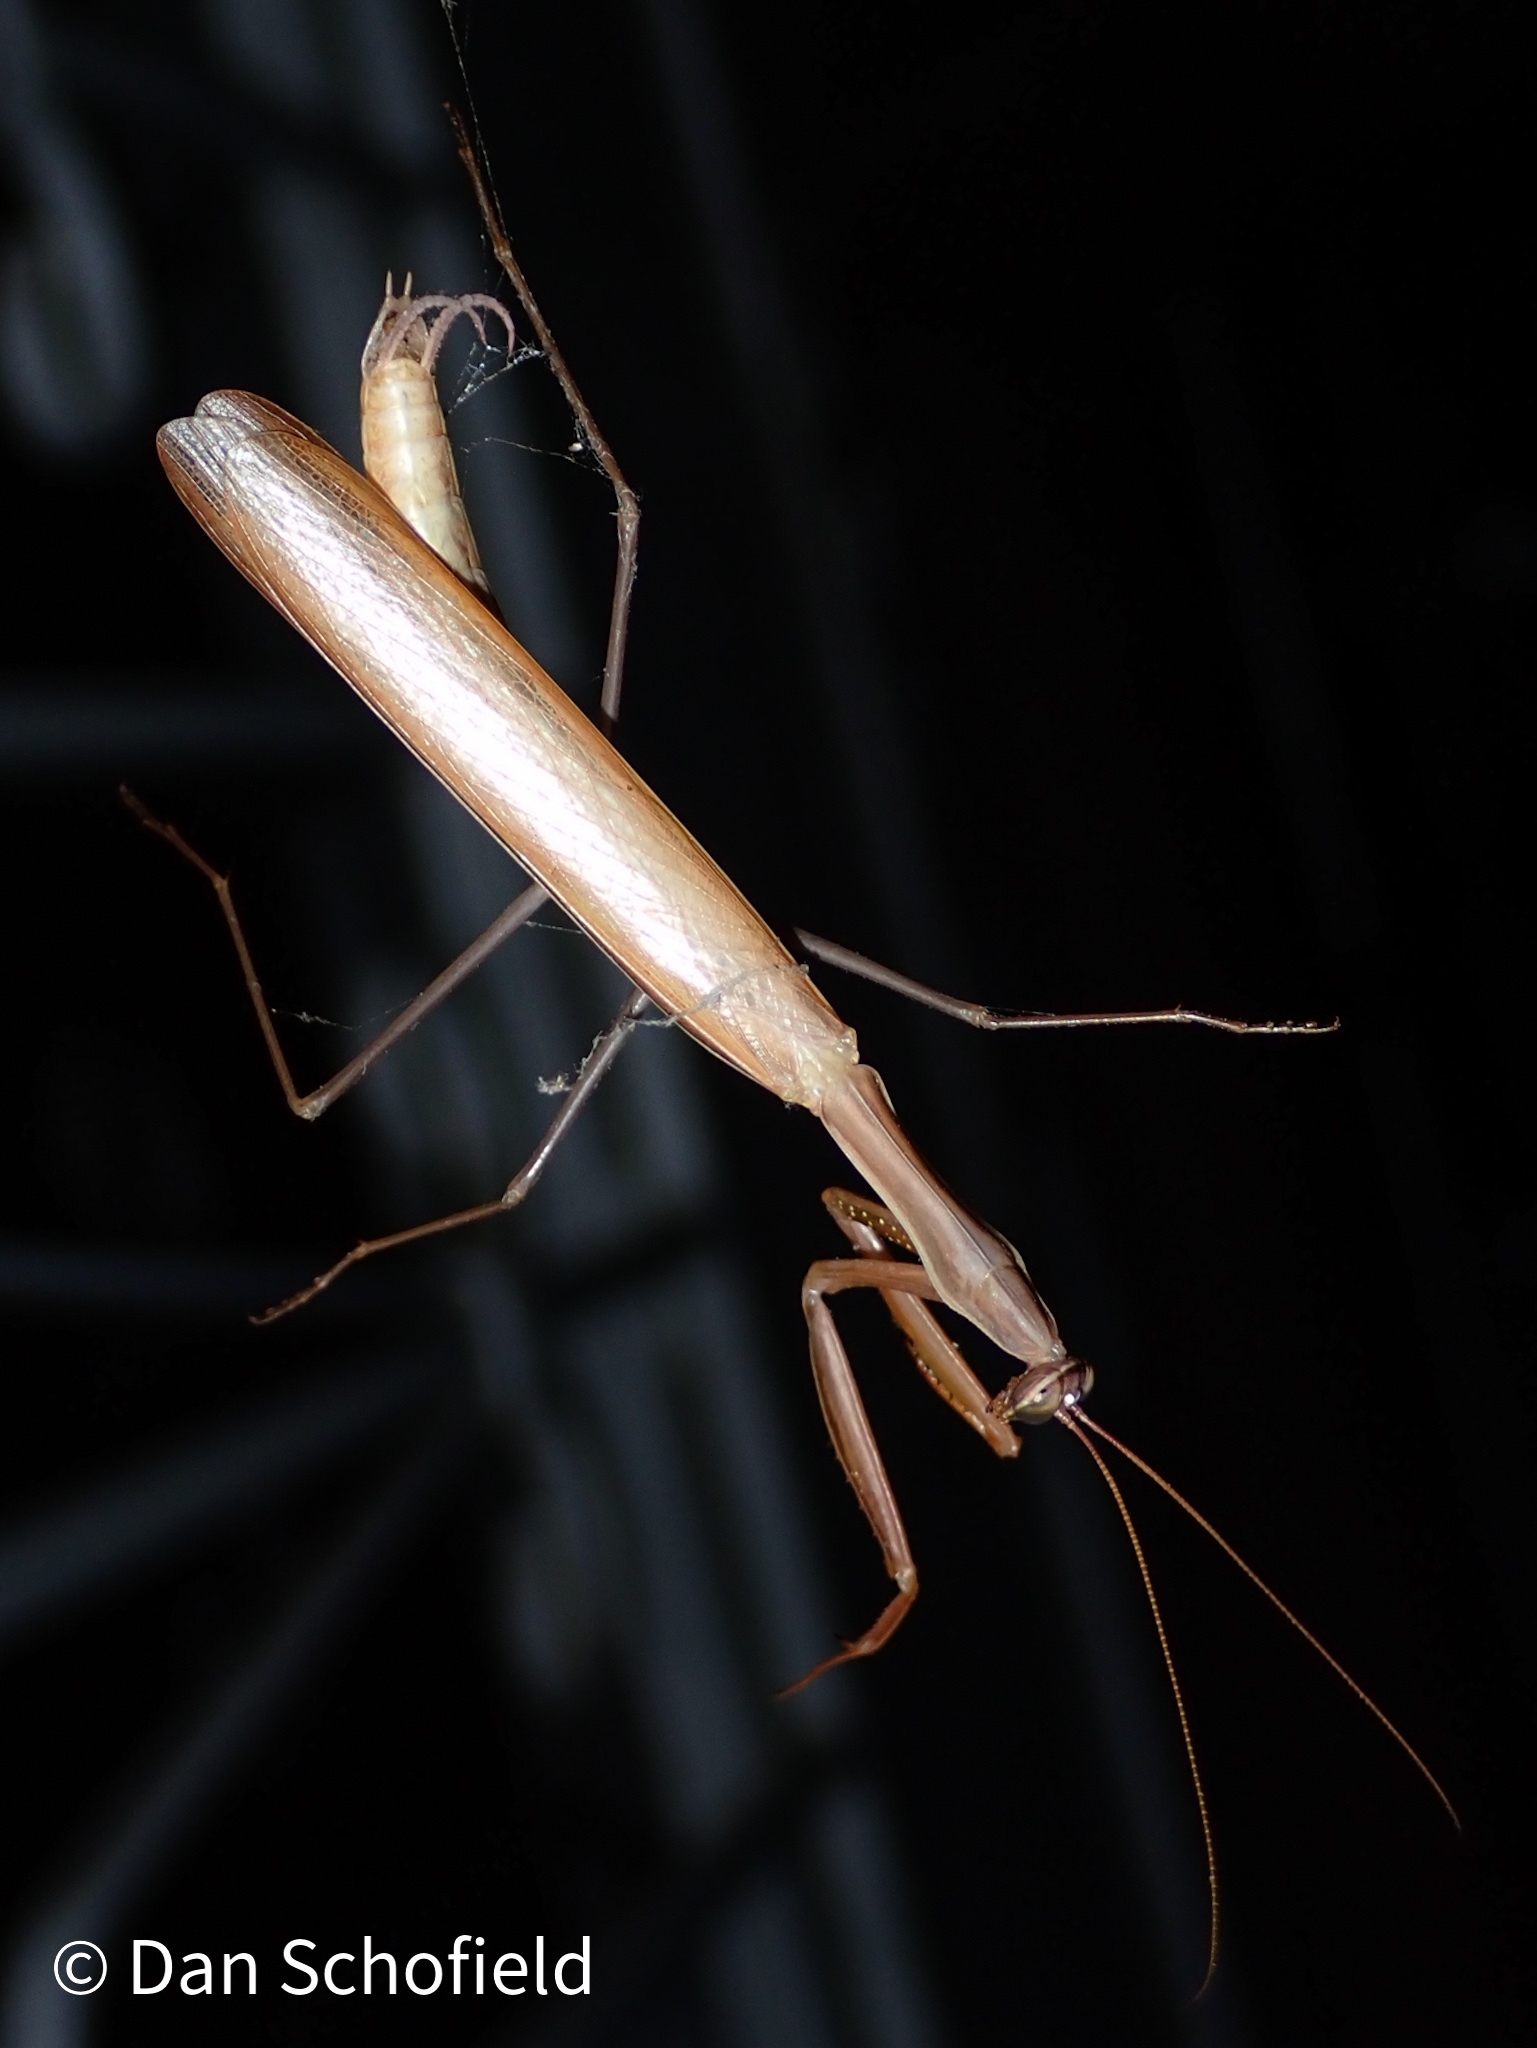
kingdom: Animalia
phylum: Arthropoda
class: Insecta
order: Mantodea
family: Mantidae
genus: Mantis
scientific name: Mantis religiosa
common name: Praying mantis
